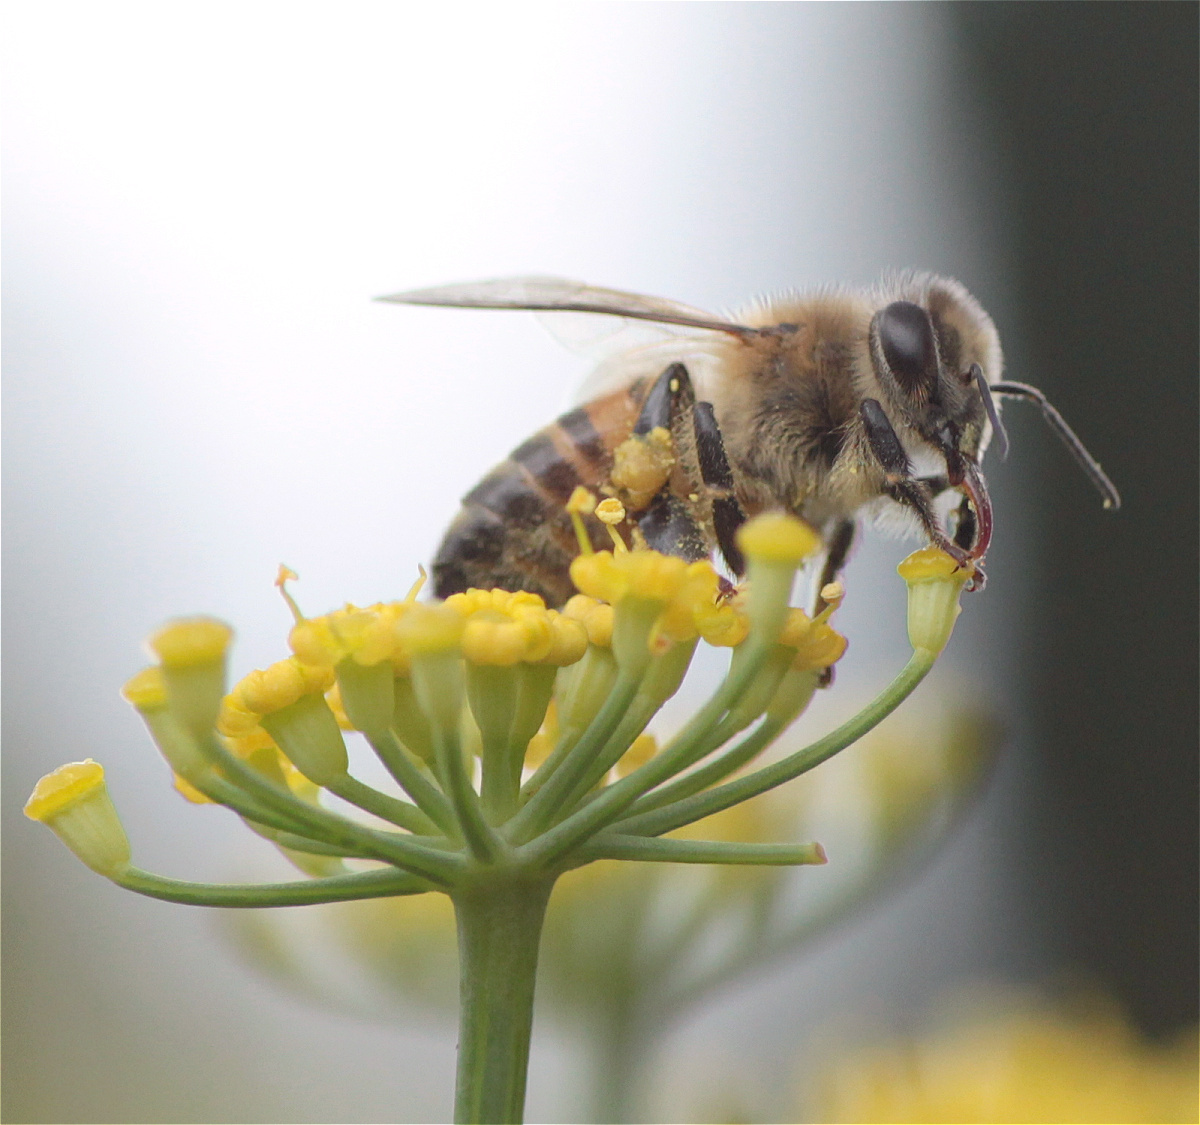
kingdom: Animalia
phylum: Arthropoda
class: Insecta
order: Hymenoptera
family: Apidae
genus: Apis
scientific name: Apis mellifera
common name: Honey bee
